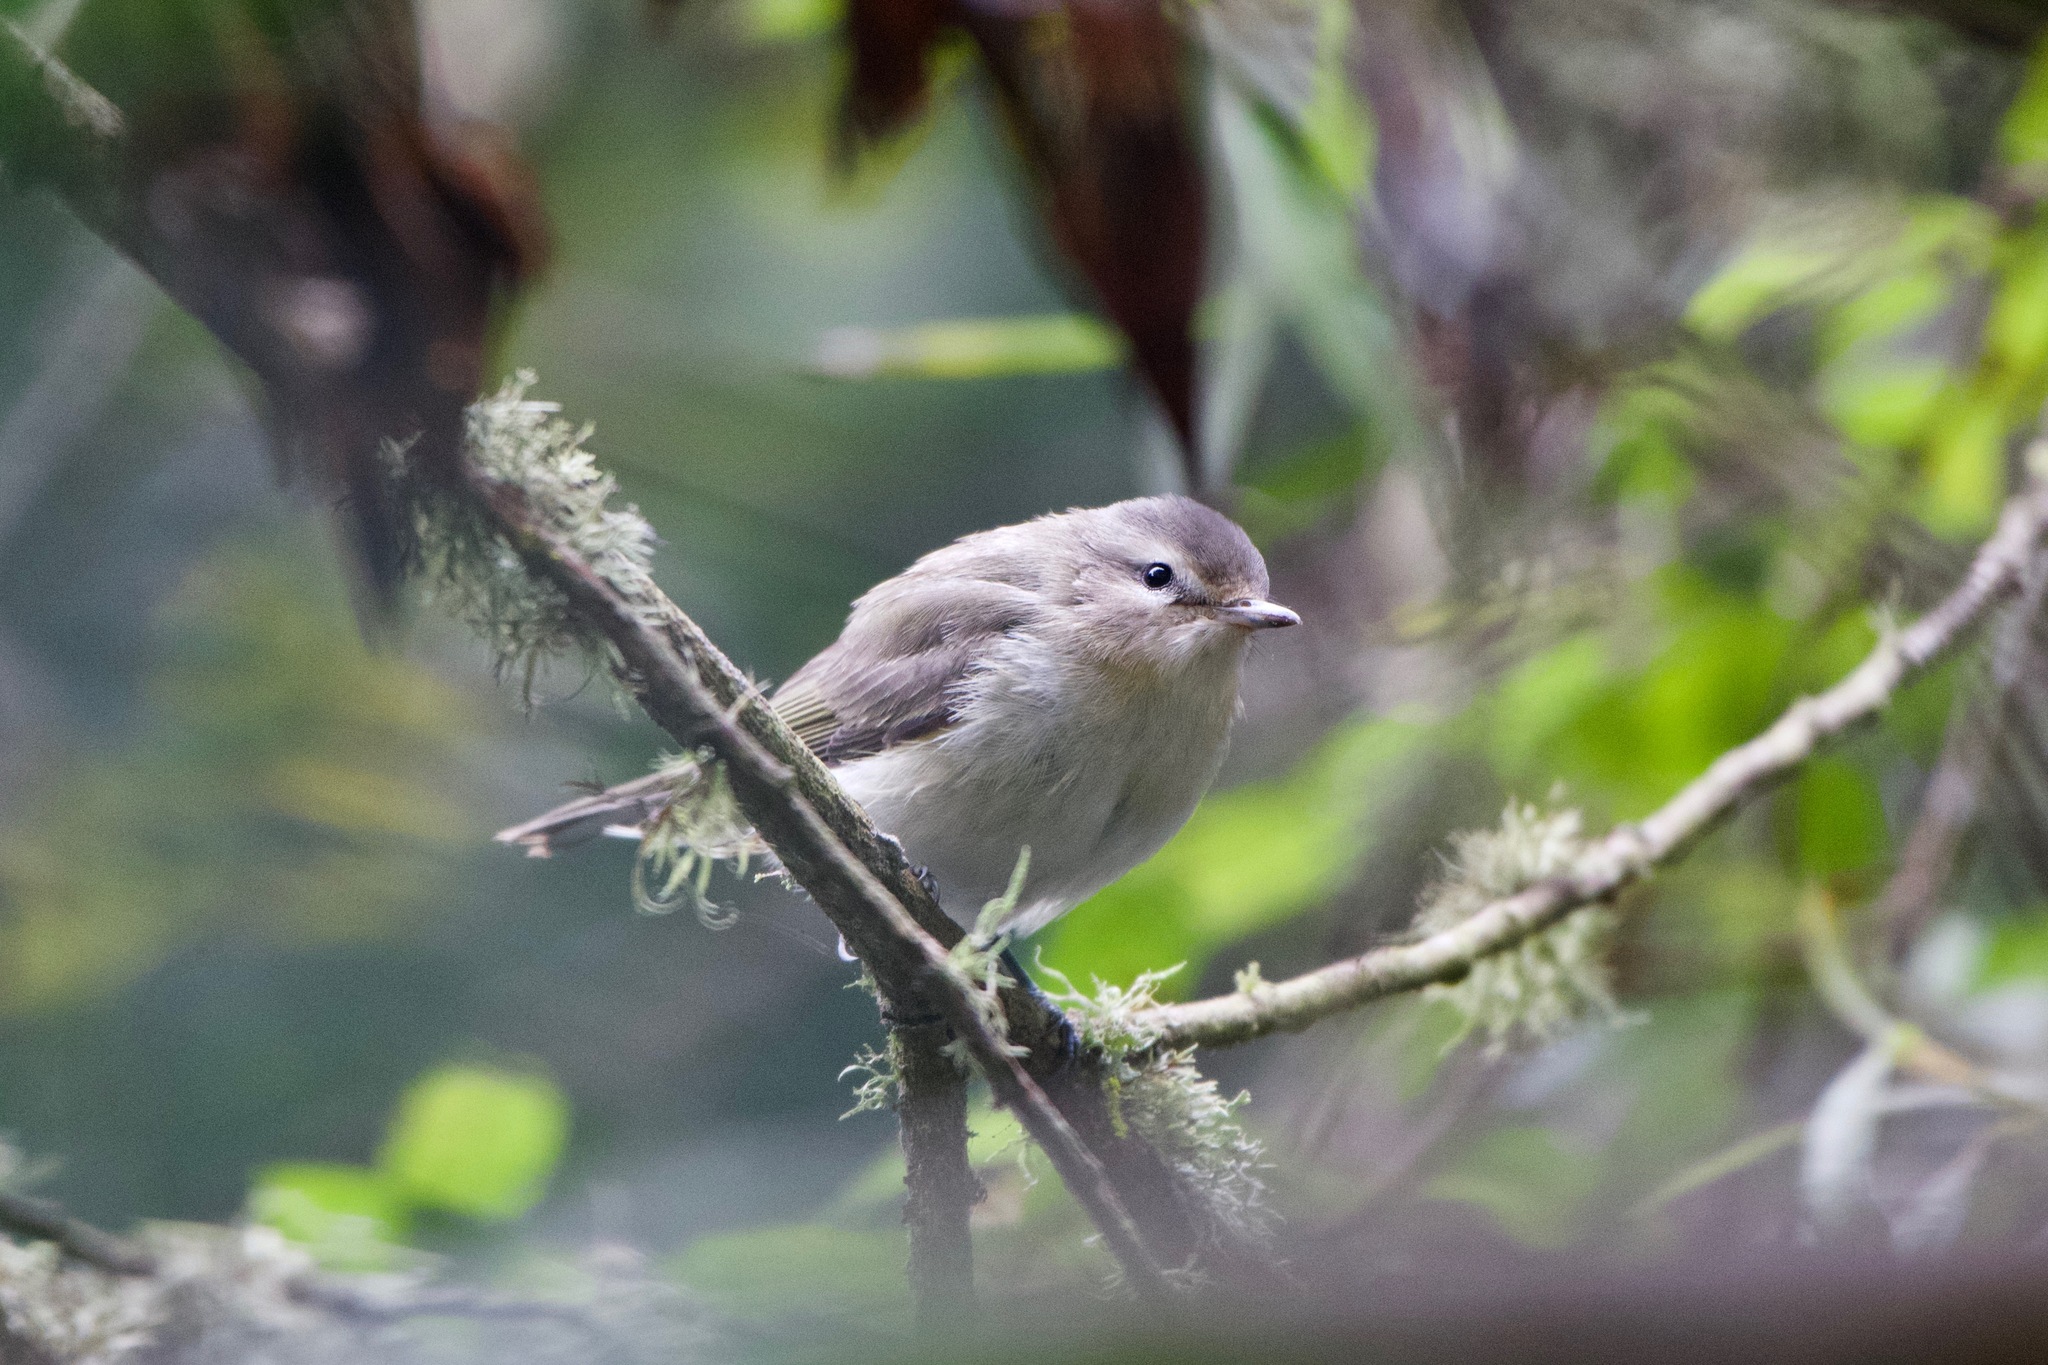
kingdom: Animalia
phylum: Chordata
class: Aves
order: Passeriformes
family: Vireonidae
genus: Vireo
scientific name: Vireo gilvus
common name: Warbling vireo
